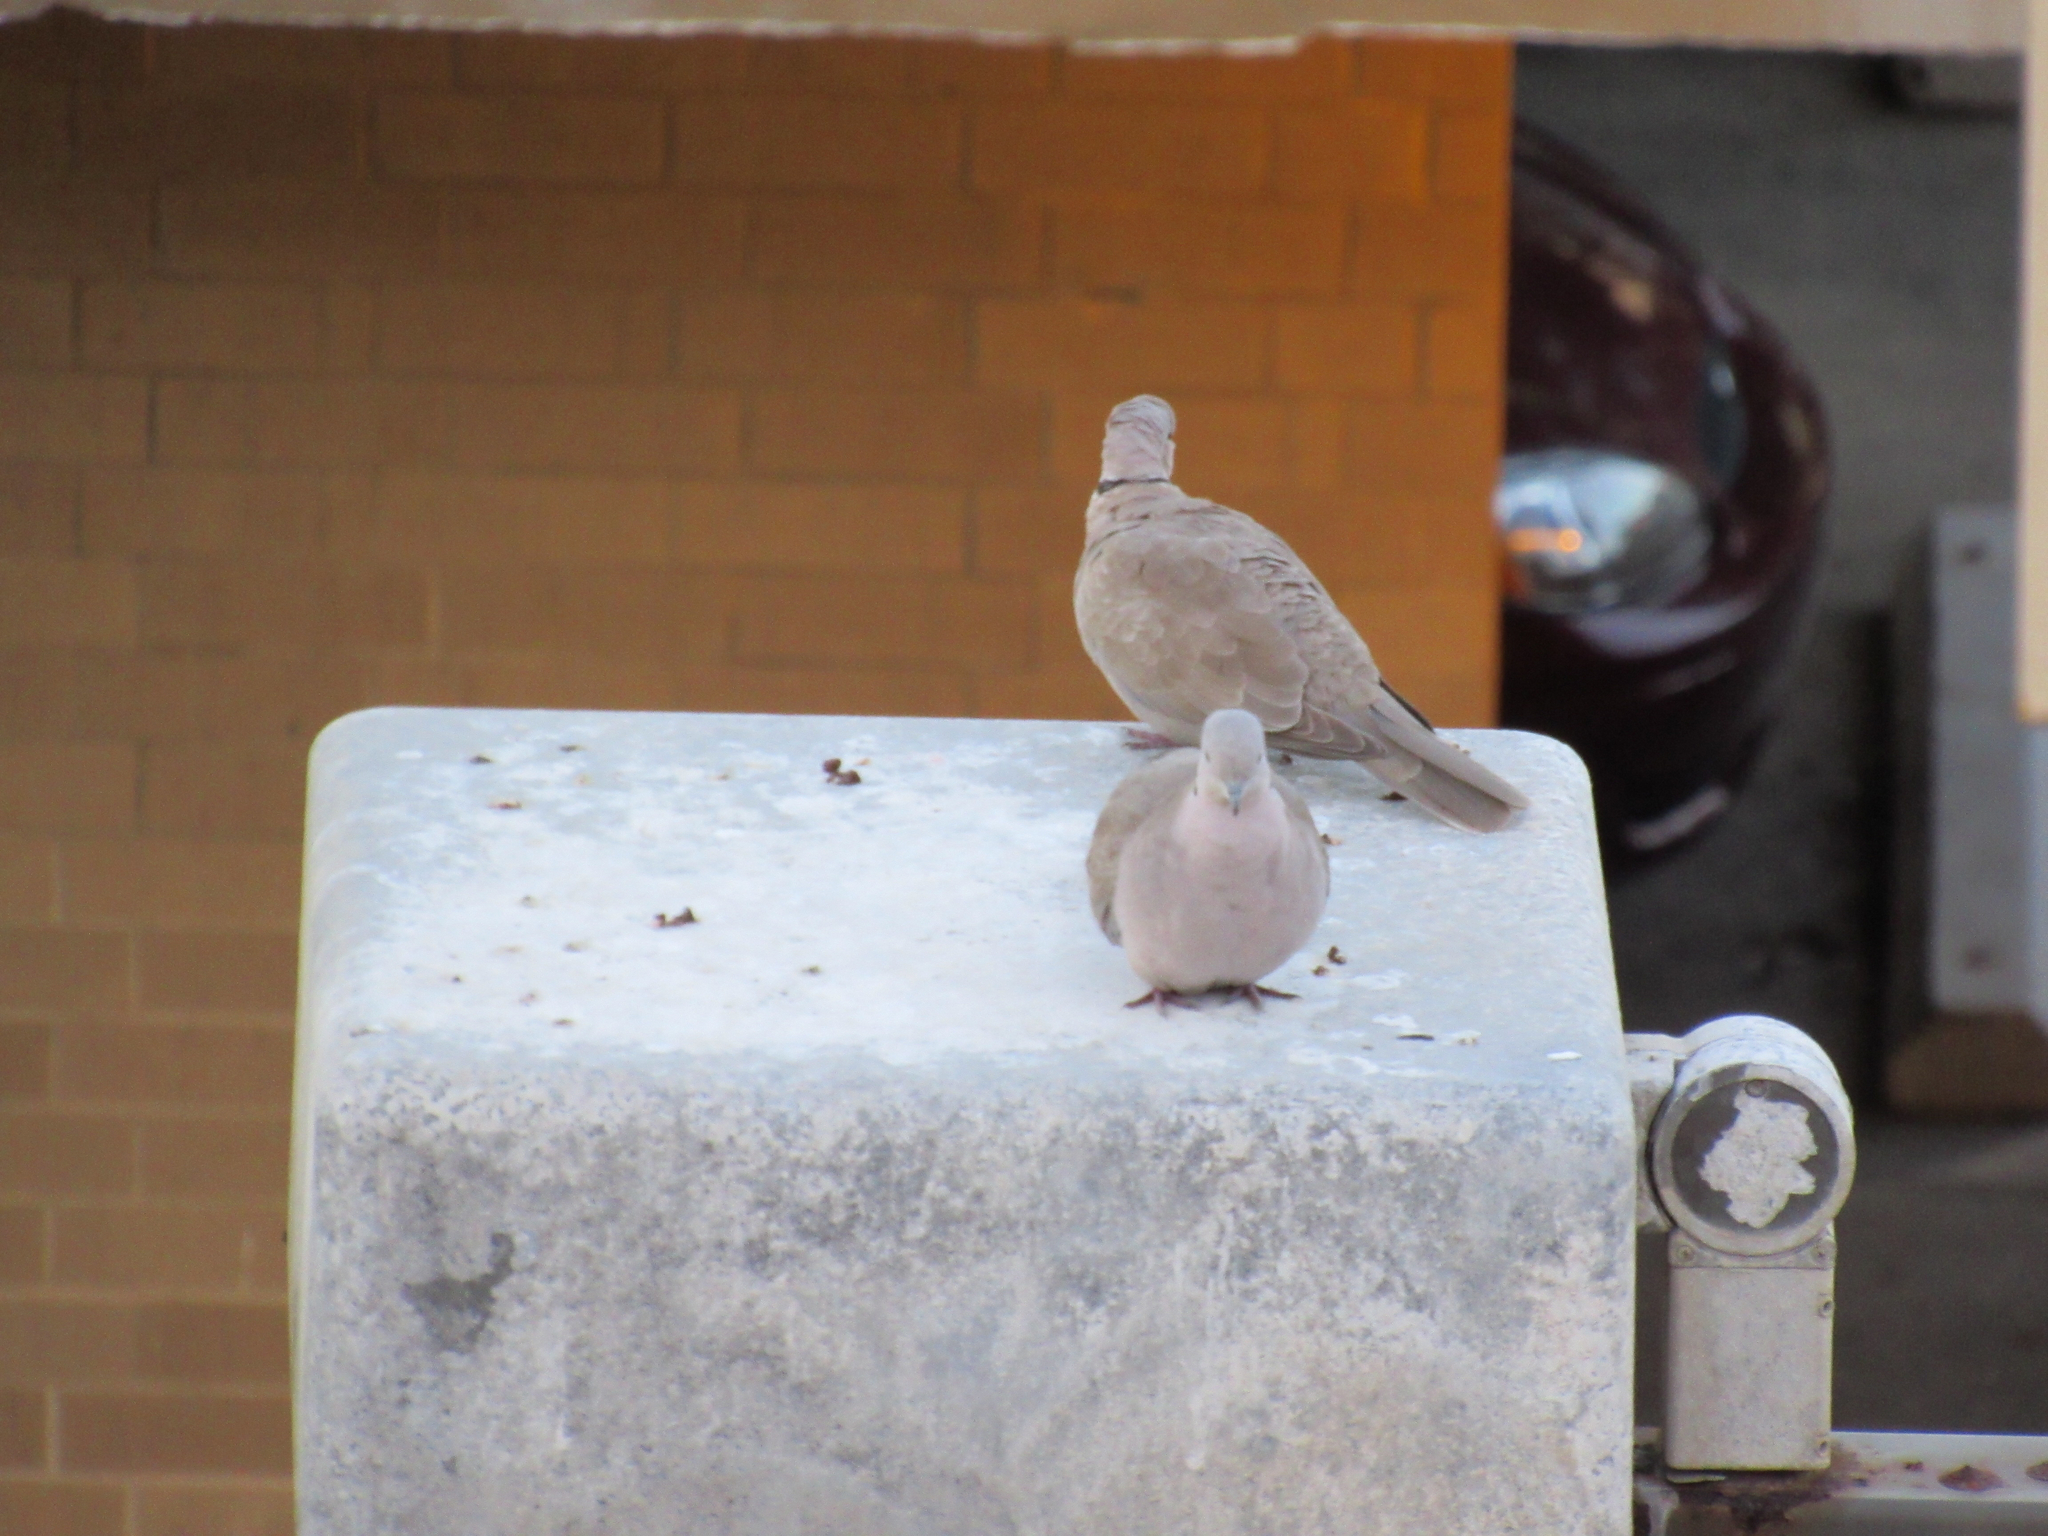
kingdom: Animalia
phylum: Chordata
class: Aves
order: Columbiformes
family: Columbidae
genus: Streptopelia
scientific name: Streptopelia decaocto
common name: Eurasian collared dove
